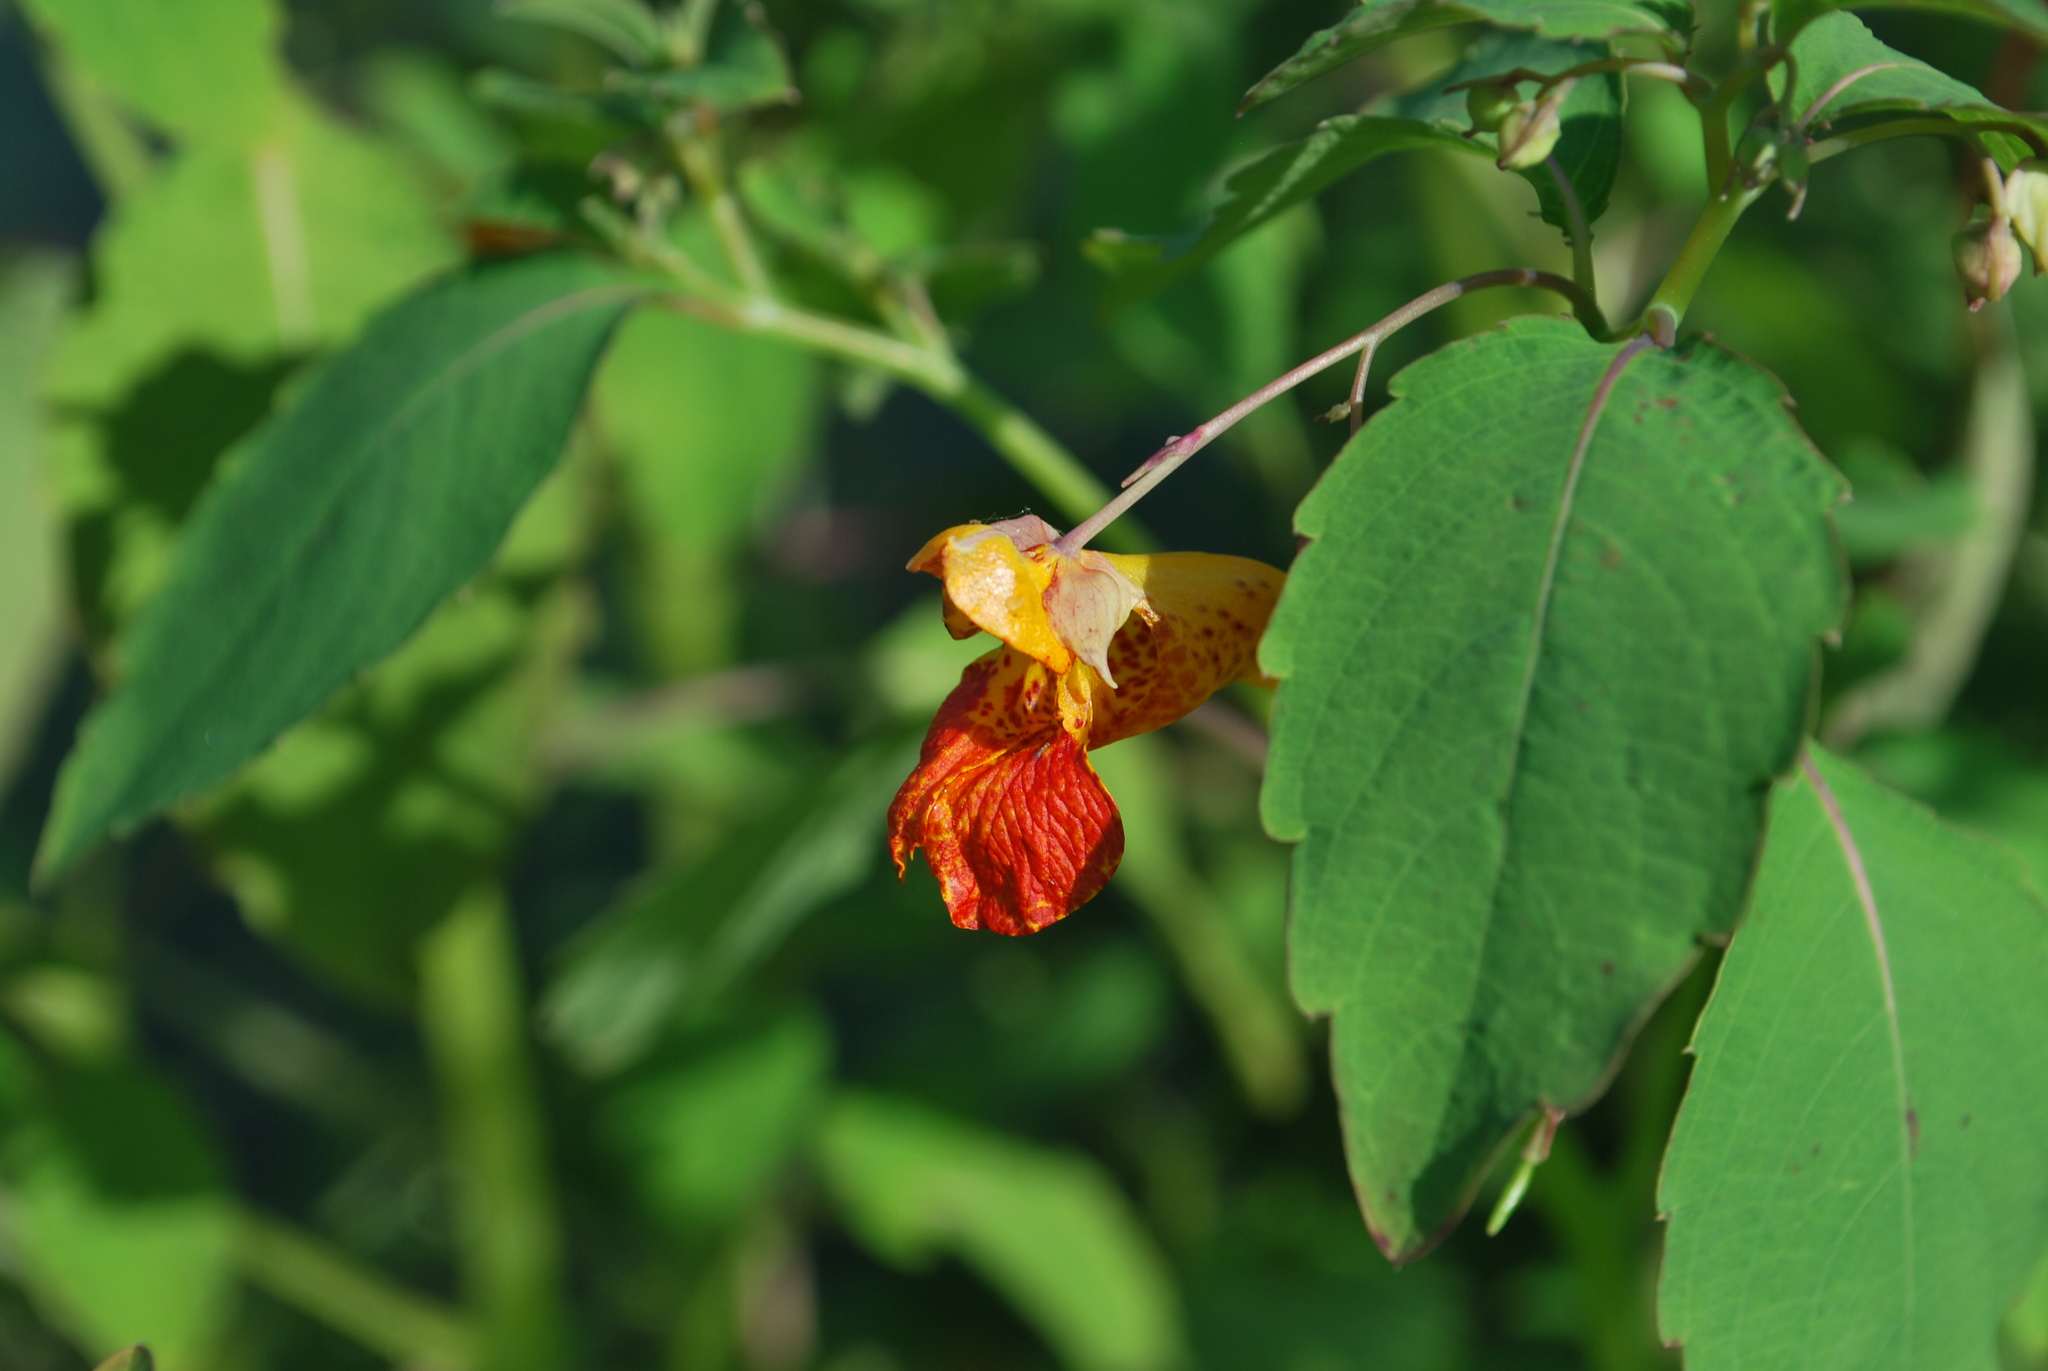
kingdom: Plantae
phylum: Tracheophyta
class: Magnoliopsida
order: Ericales
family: Balsaminaceae
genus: Impatiens
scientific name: Impatiens capensis
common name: Orange balsam
